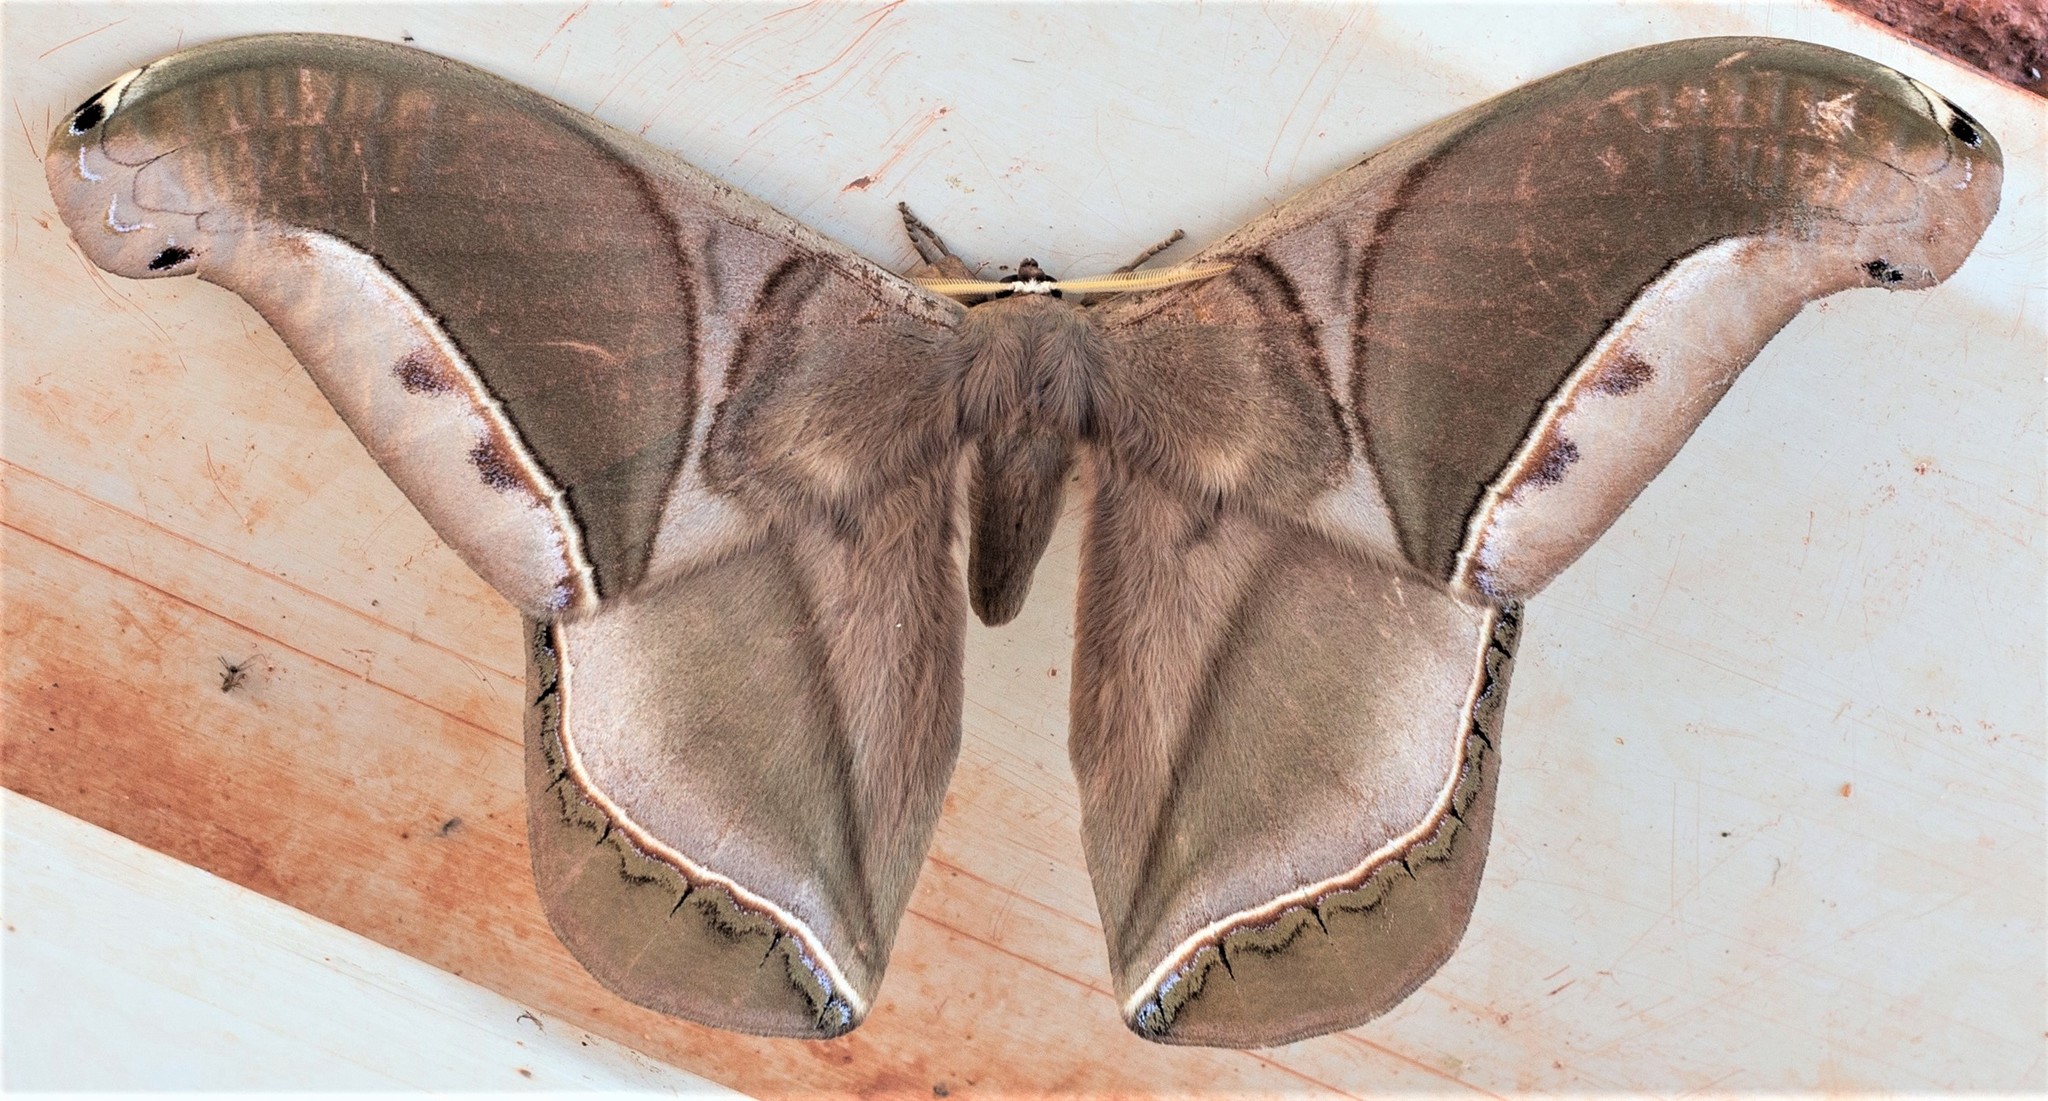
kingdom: Animalia
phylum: Arthropoda
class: Insecta
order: Lepidoptera
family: Saturniidae
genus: Rhescyntis
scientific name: Rhescyntis hippodamia
